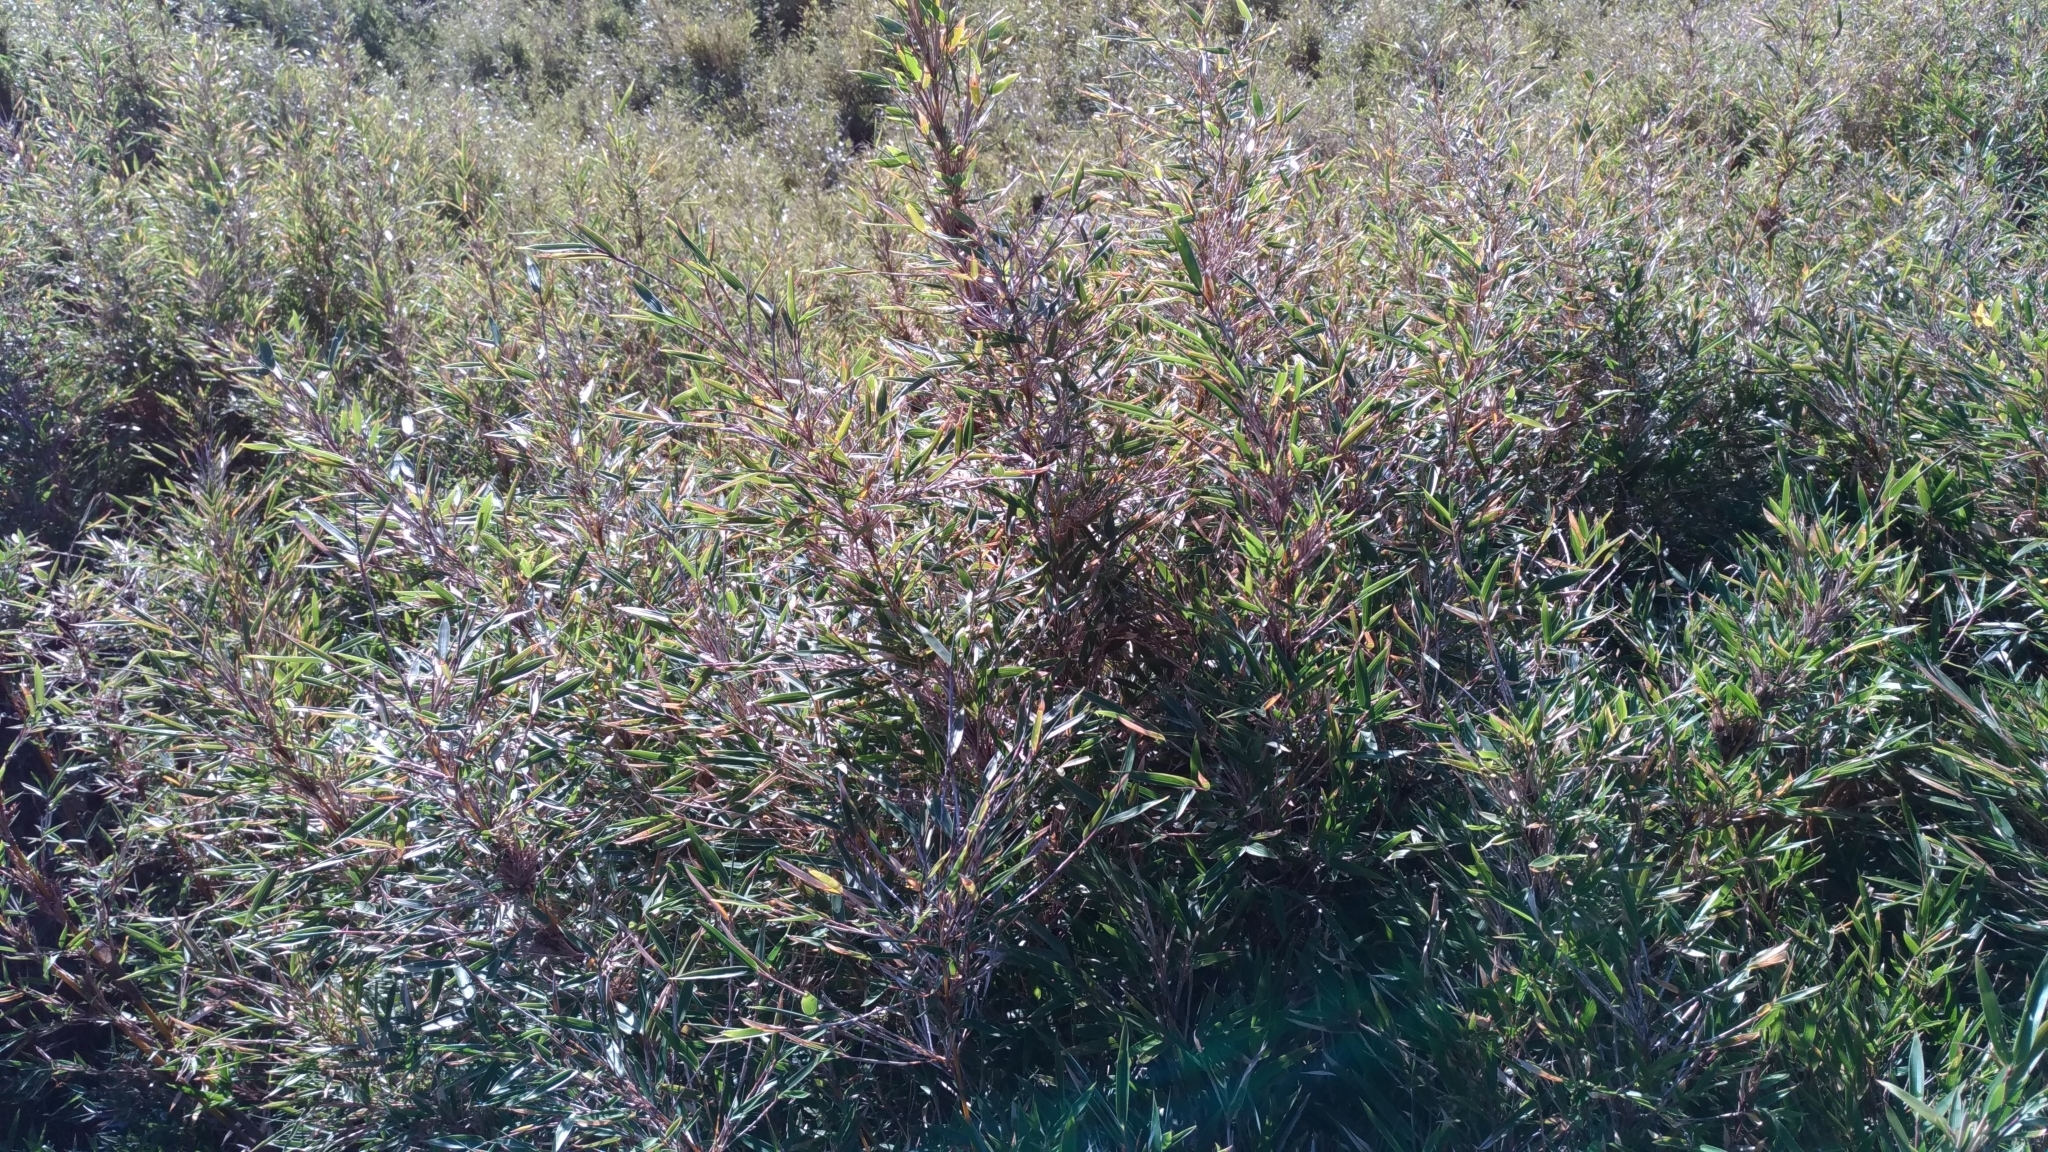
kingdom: Plantae
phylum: Tracheophyta
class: Liliopsida
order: Poales
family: Poaceae
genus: Yushania
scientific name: Yushania niitakayamensis
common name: Yushan cane
